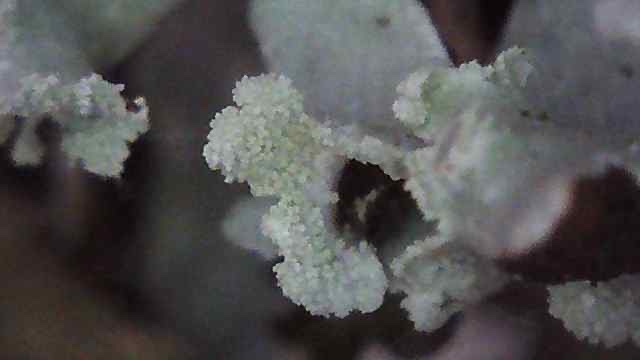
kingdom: Fungi
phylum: Ascomycota
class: Lecanoromycetes
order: Lecanorales
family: Parmeliaceae
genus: Hypogymnia
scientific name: Hypogymnia physodes
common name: Dark crottle
